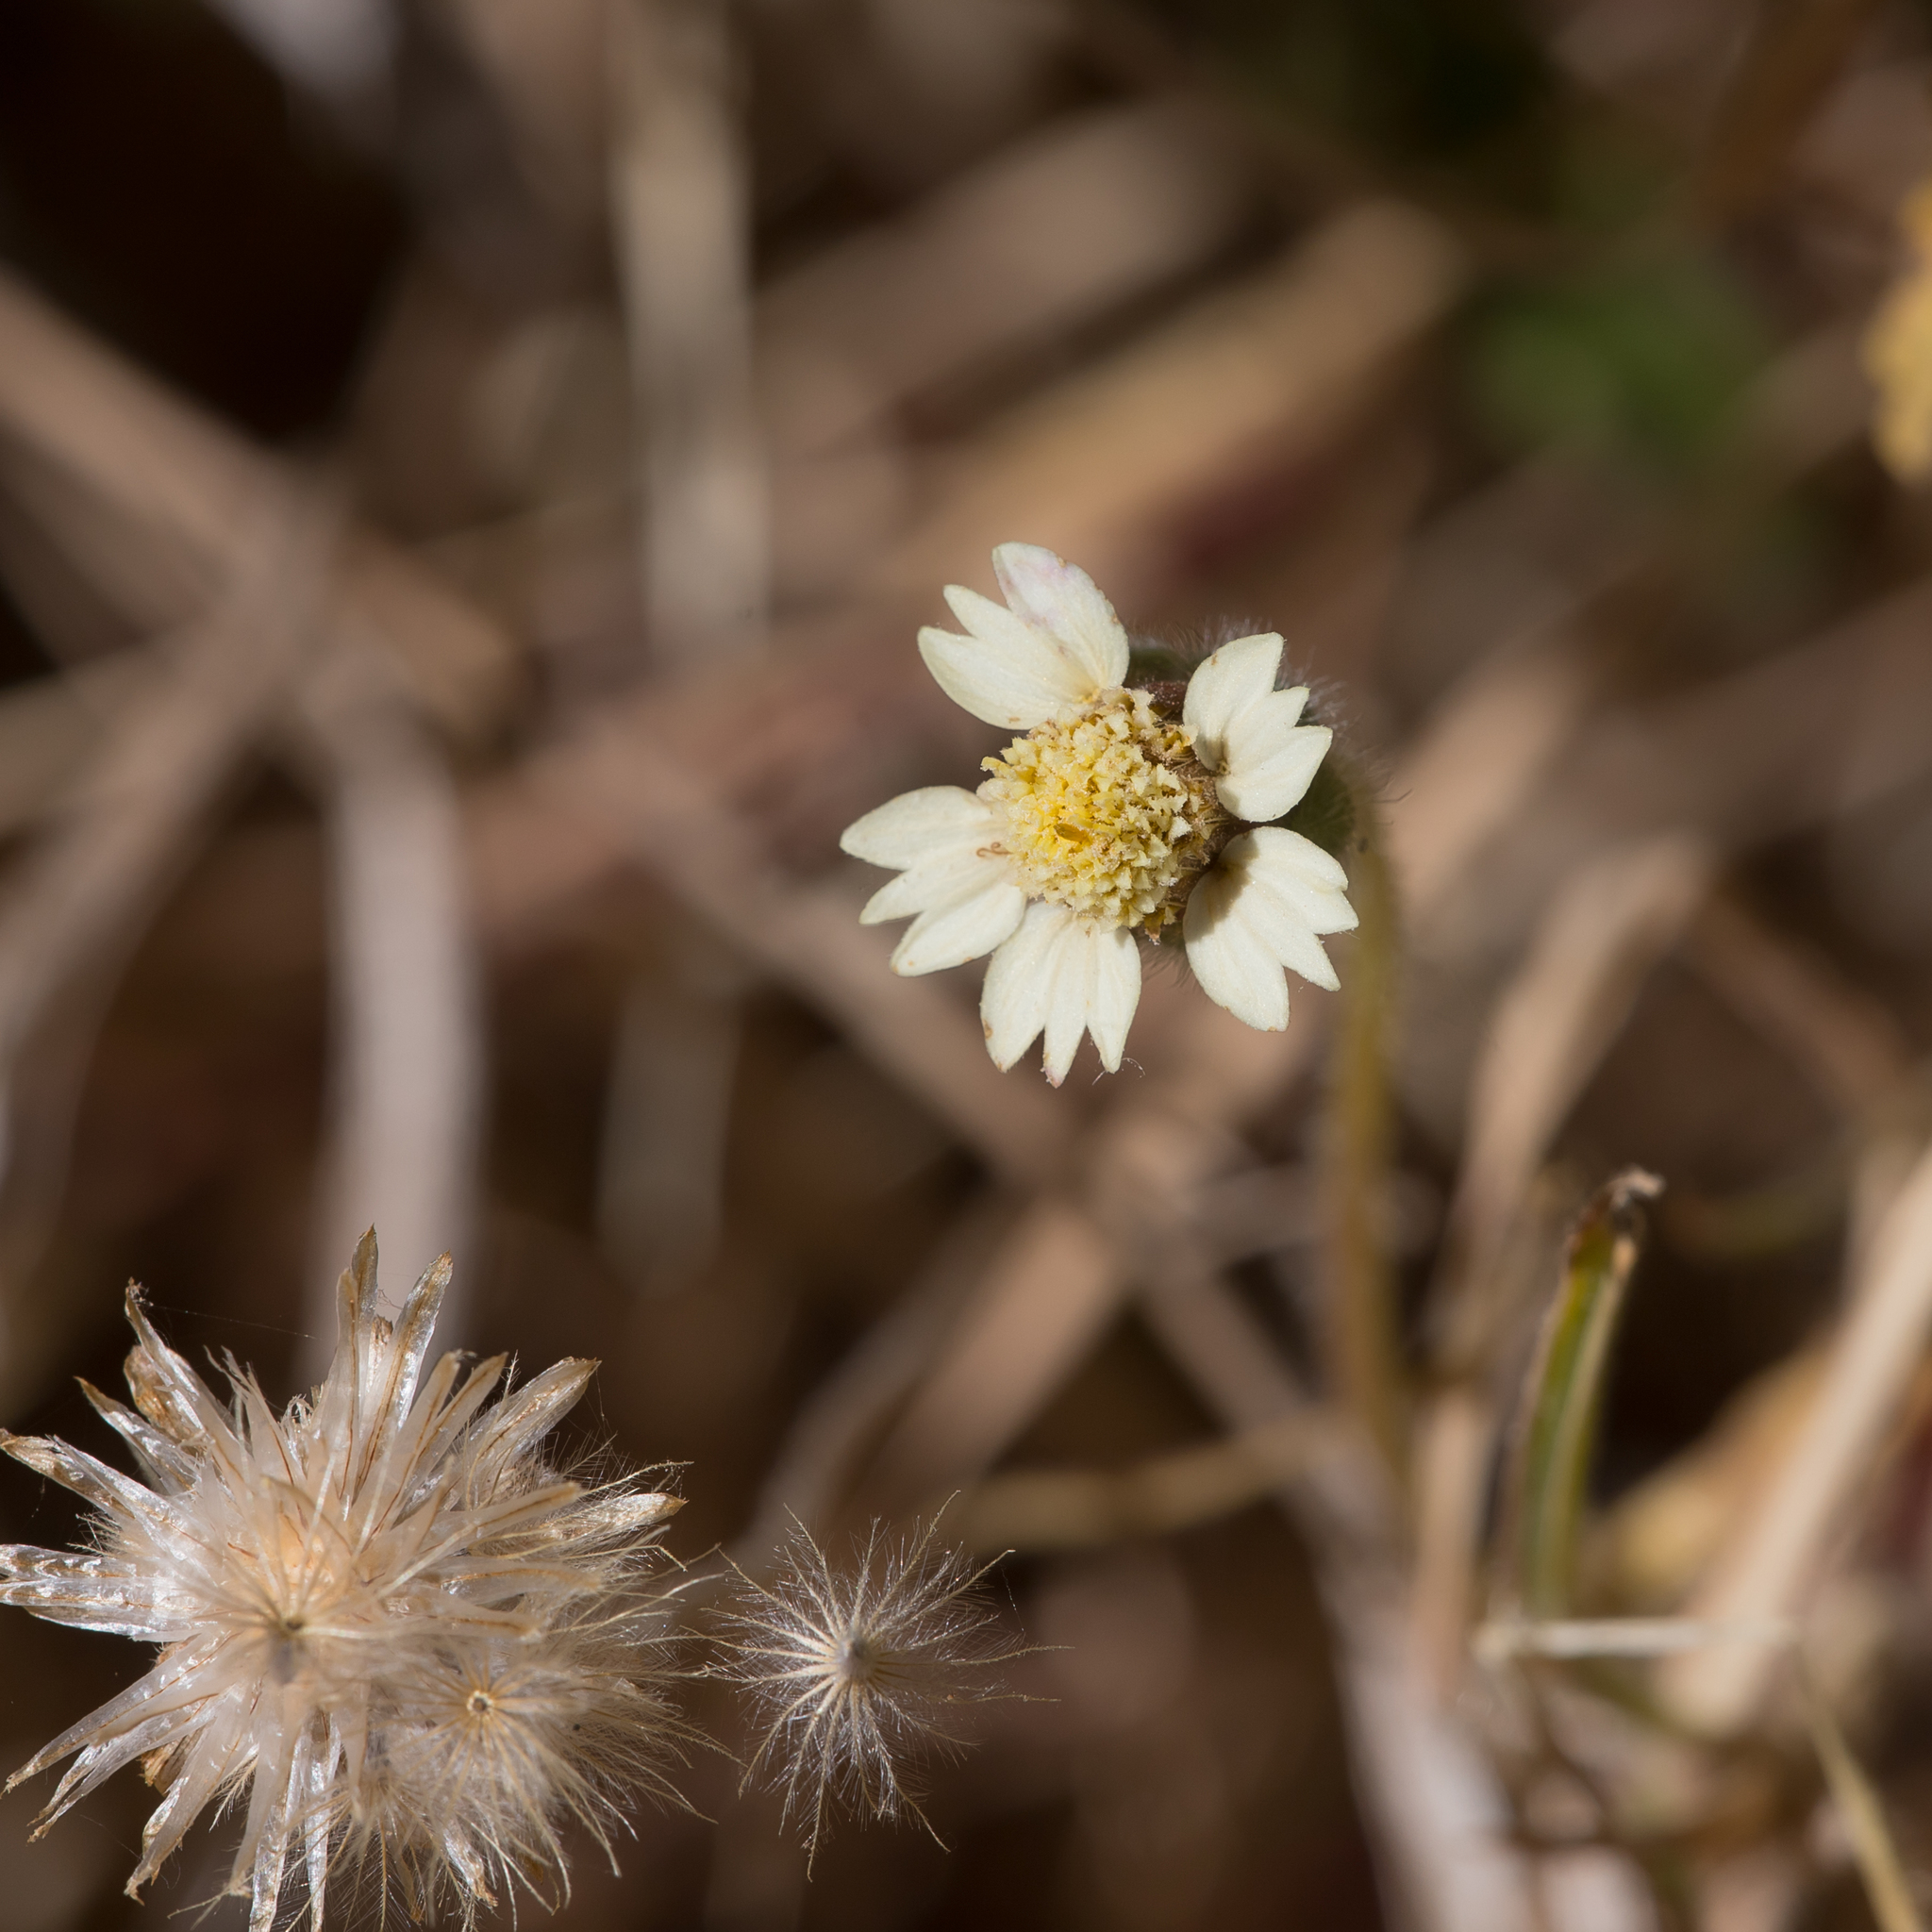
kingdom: Plantae
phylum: Tracheophyta
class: Magnoliopsida
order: Asterales
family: Asteraceae
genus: Tridax
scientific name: Tridax procumbens
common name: Coatbuttons
